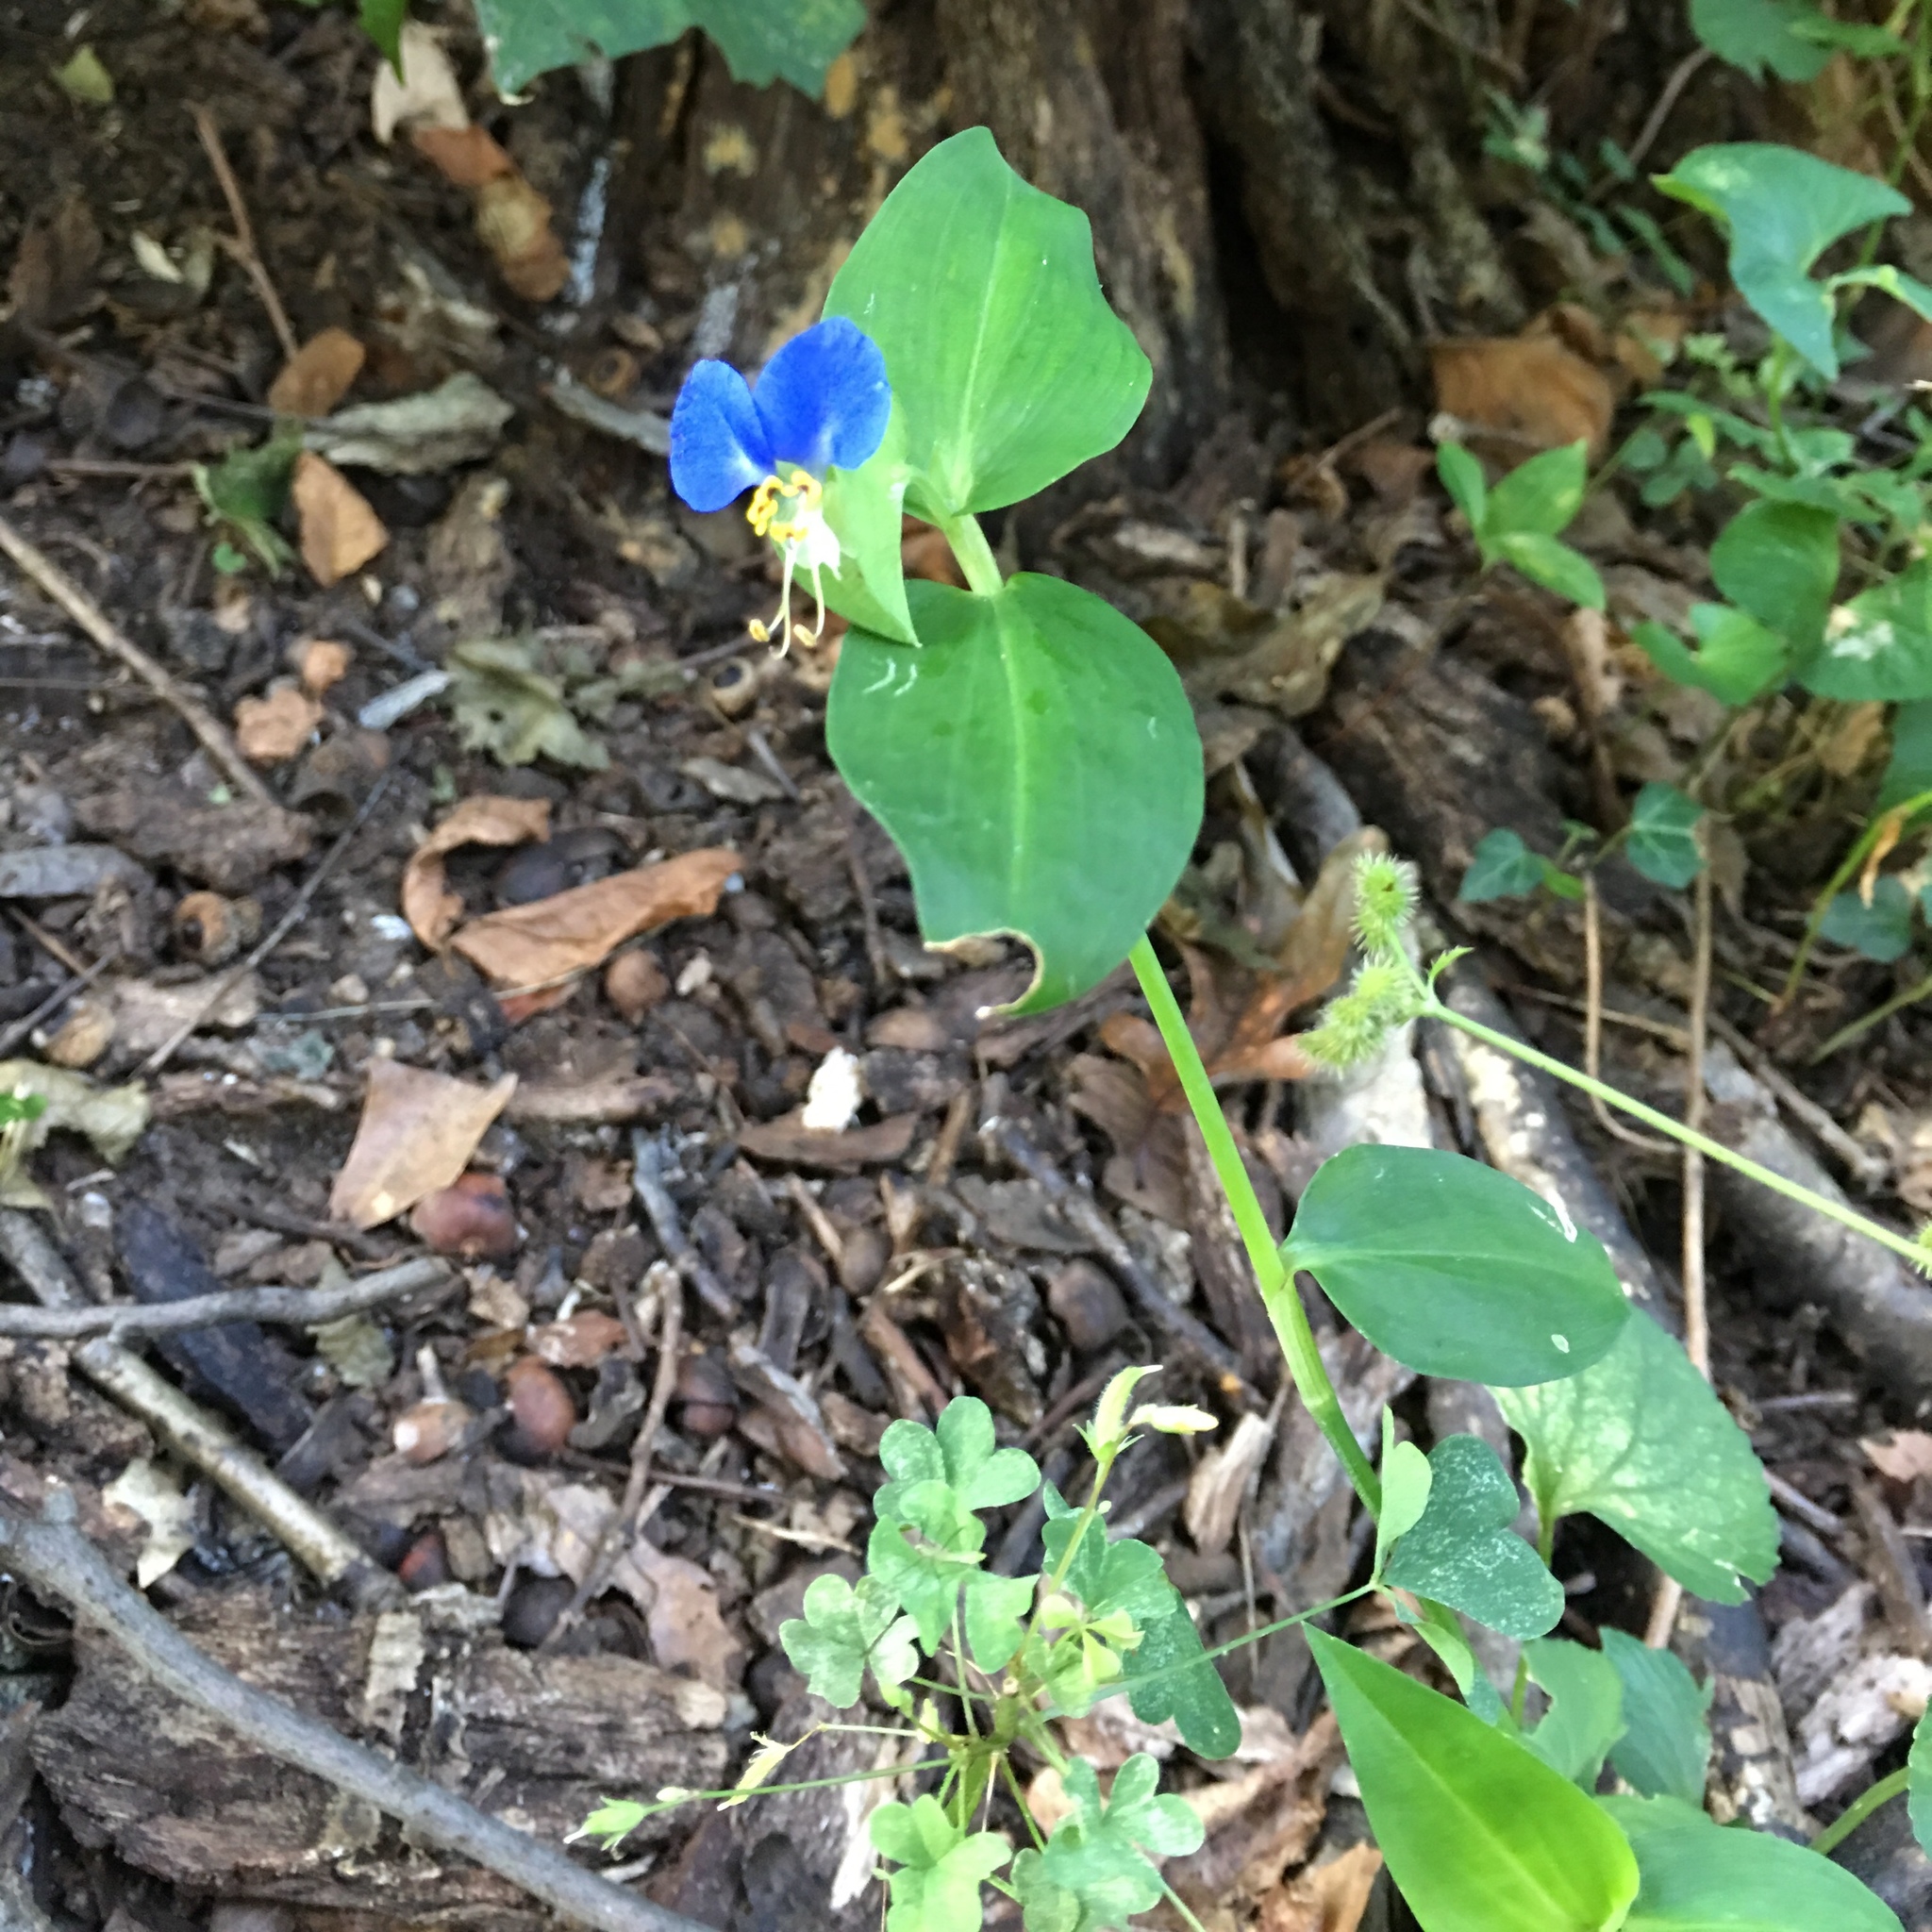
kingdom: Plantae
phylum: Tracheophyta
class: Liliopsida
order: Commelinales
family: Commelinaceae
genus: Commelina
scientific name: Commelina communis
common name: Asiatic dayflower
